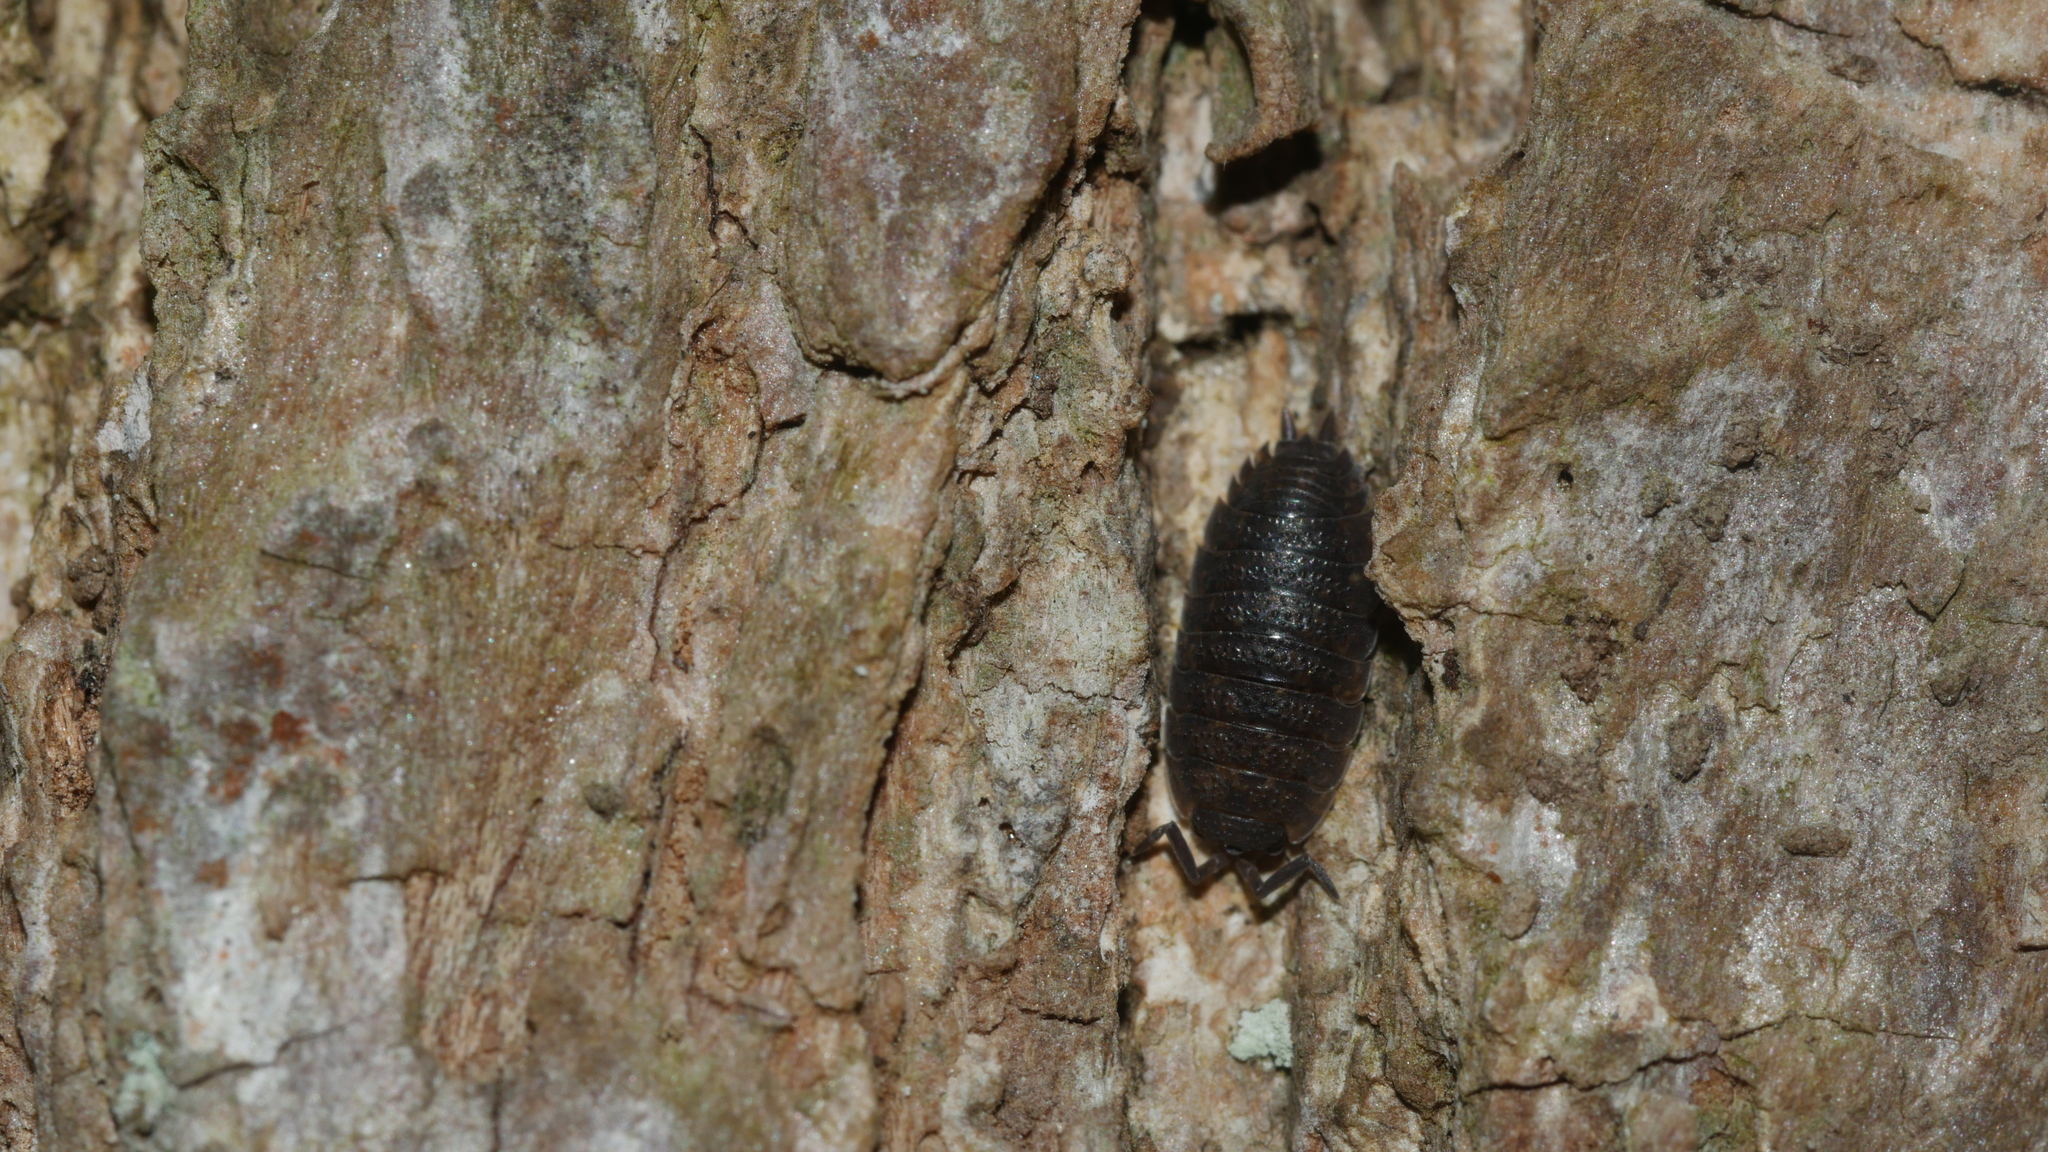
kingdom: Animalia
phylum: Arthropoda
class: Malacostraca
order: Isopoda
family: Porcellionidae
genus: Porcellio
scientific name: Porcellio scaber
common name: Common rough woodlouse
